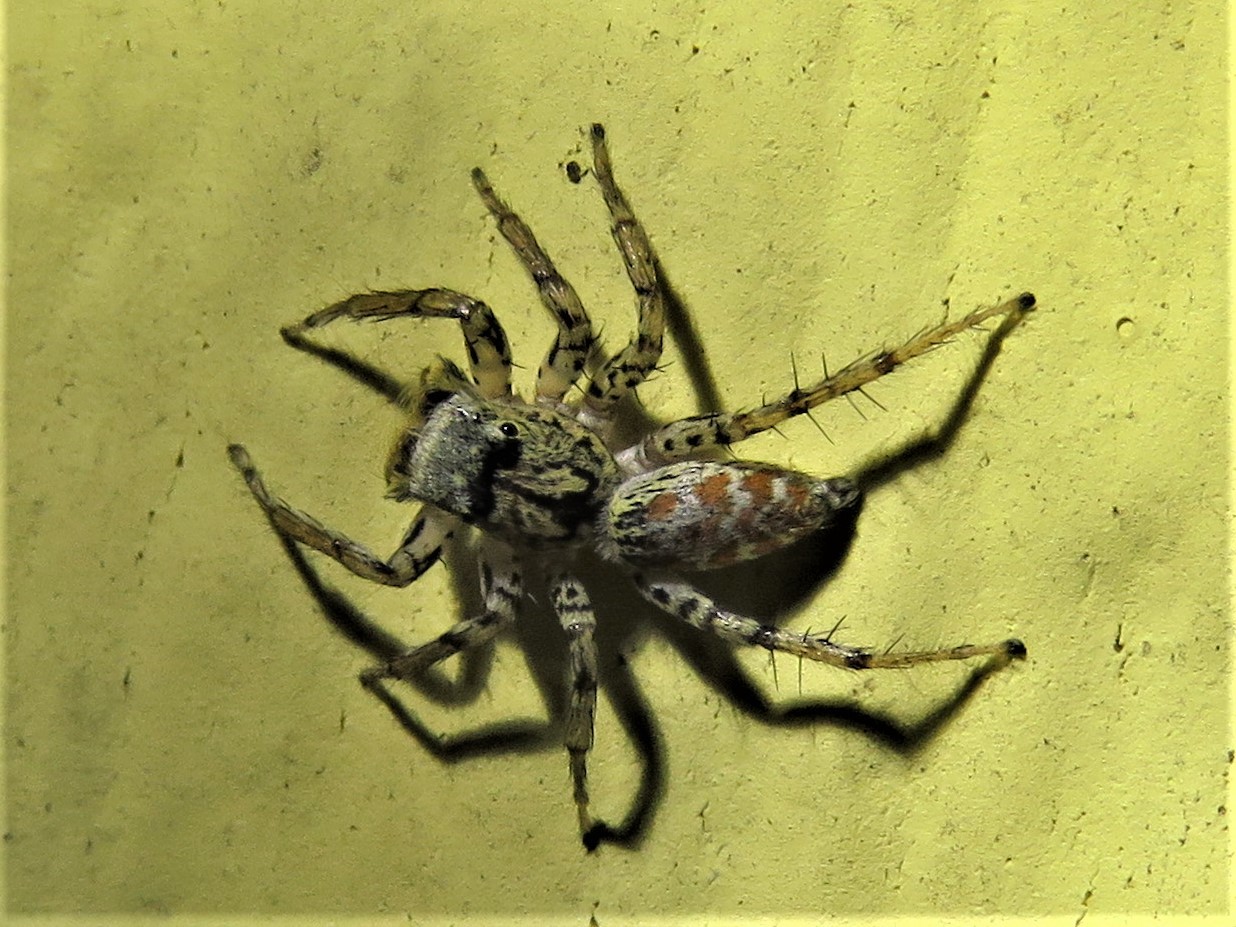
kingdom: Animalia
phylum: Arthropoda
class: Arachnida
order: Araneae
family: Salticidae
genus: Maevia
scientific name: Maevia inclemens
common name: Dimorphic jumper
